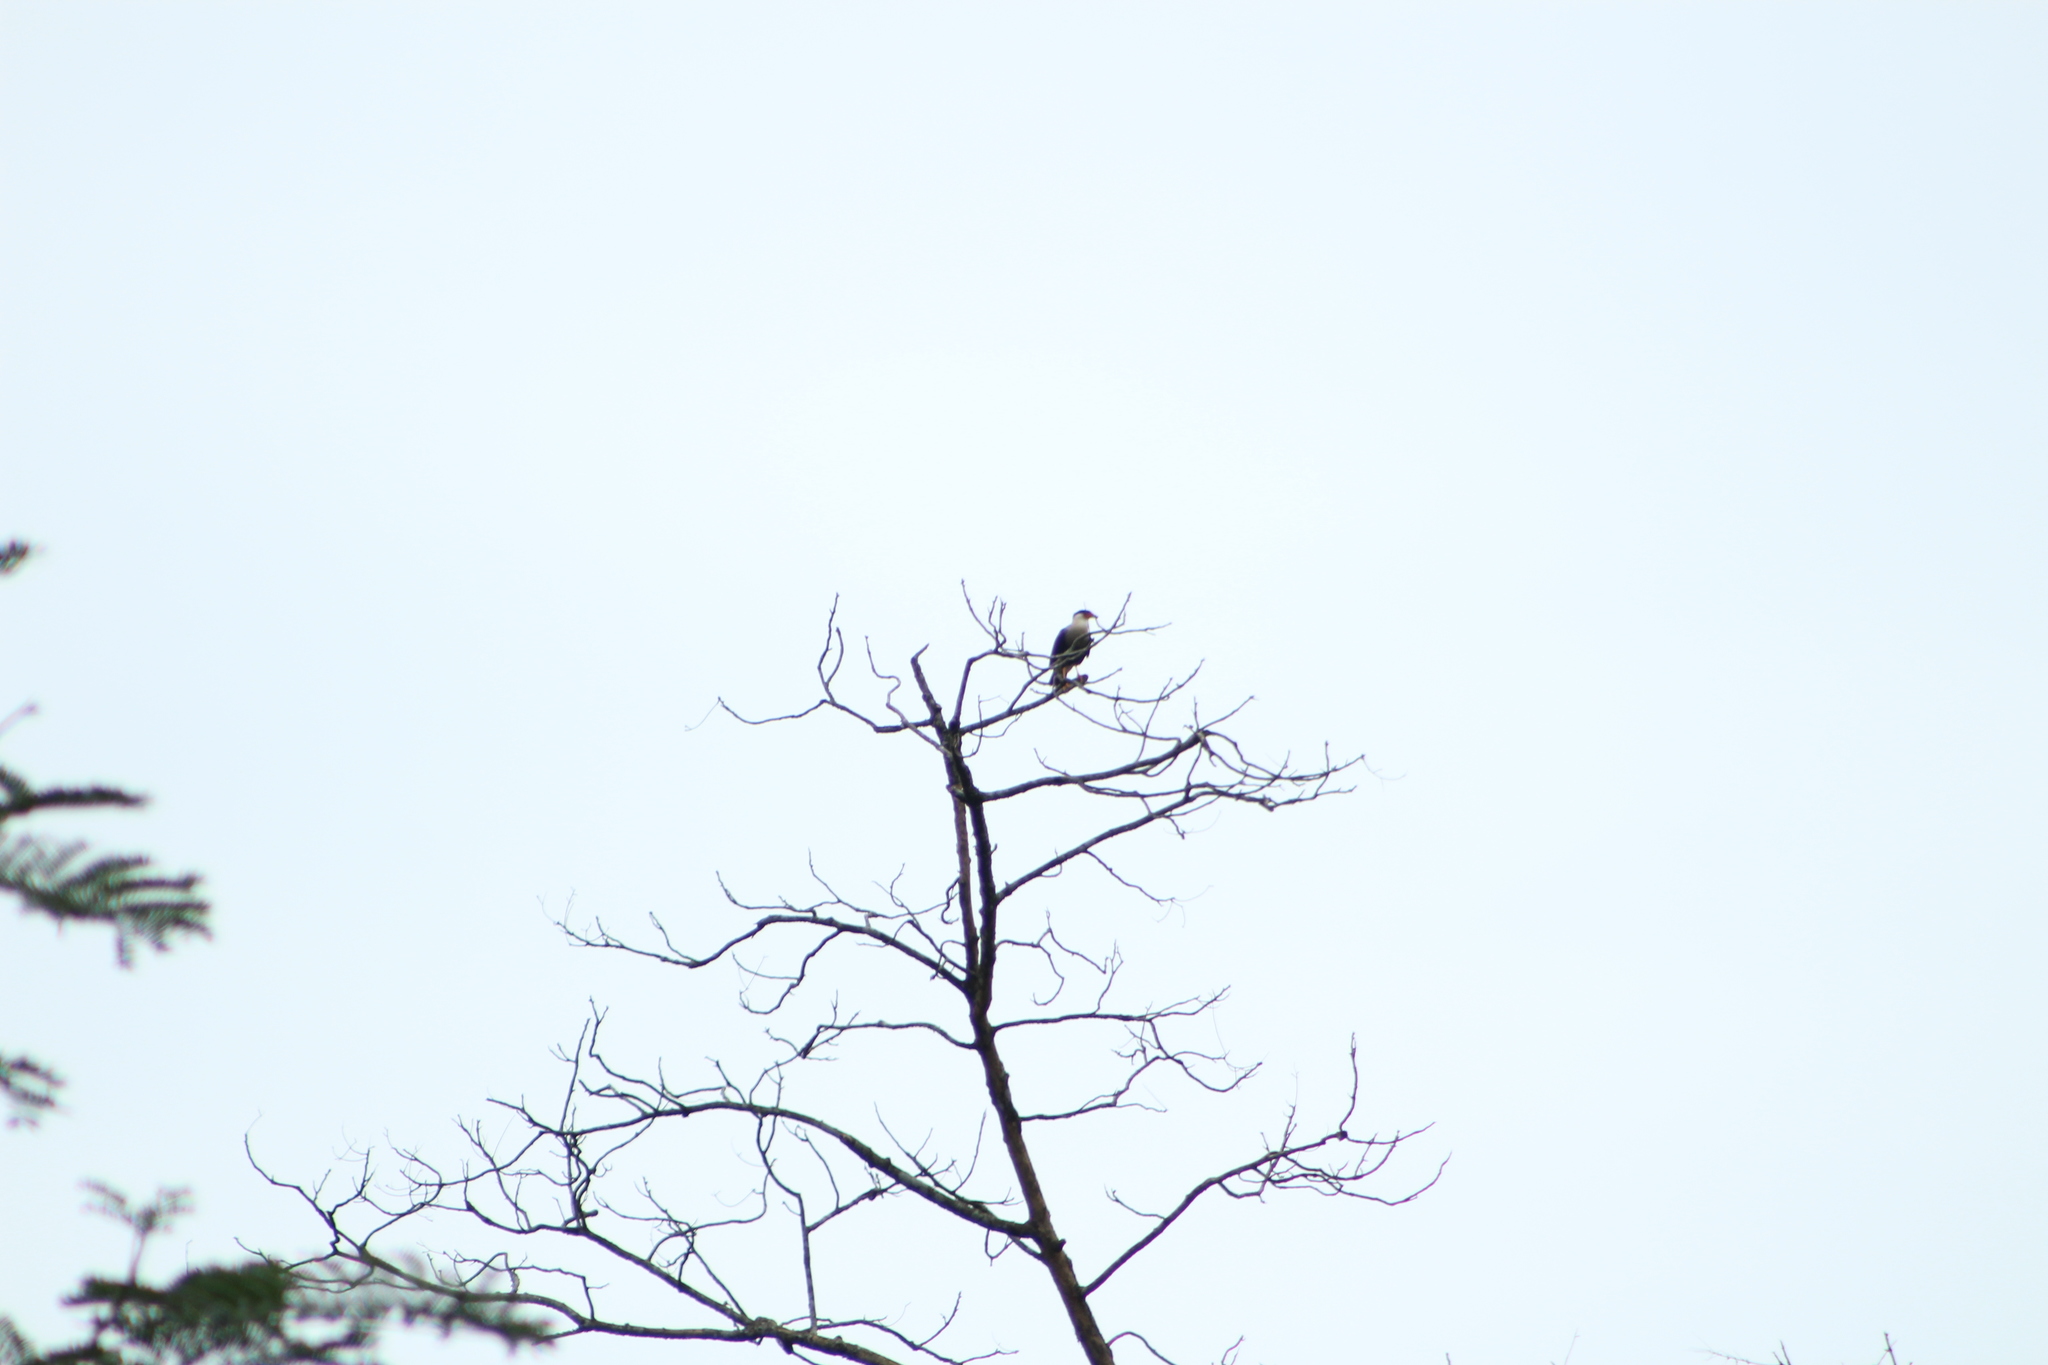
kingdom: Animalia
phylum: Chordata
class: Aves
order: Falconiformes
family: Falconidae
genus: Caracara
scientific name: Caracara plancus
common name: Southern caracara
